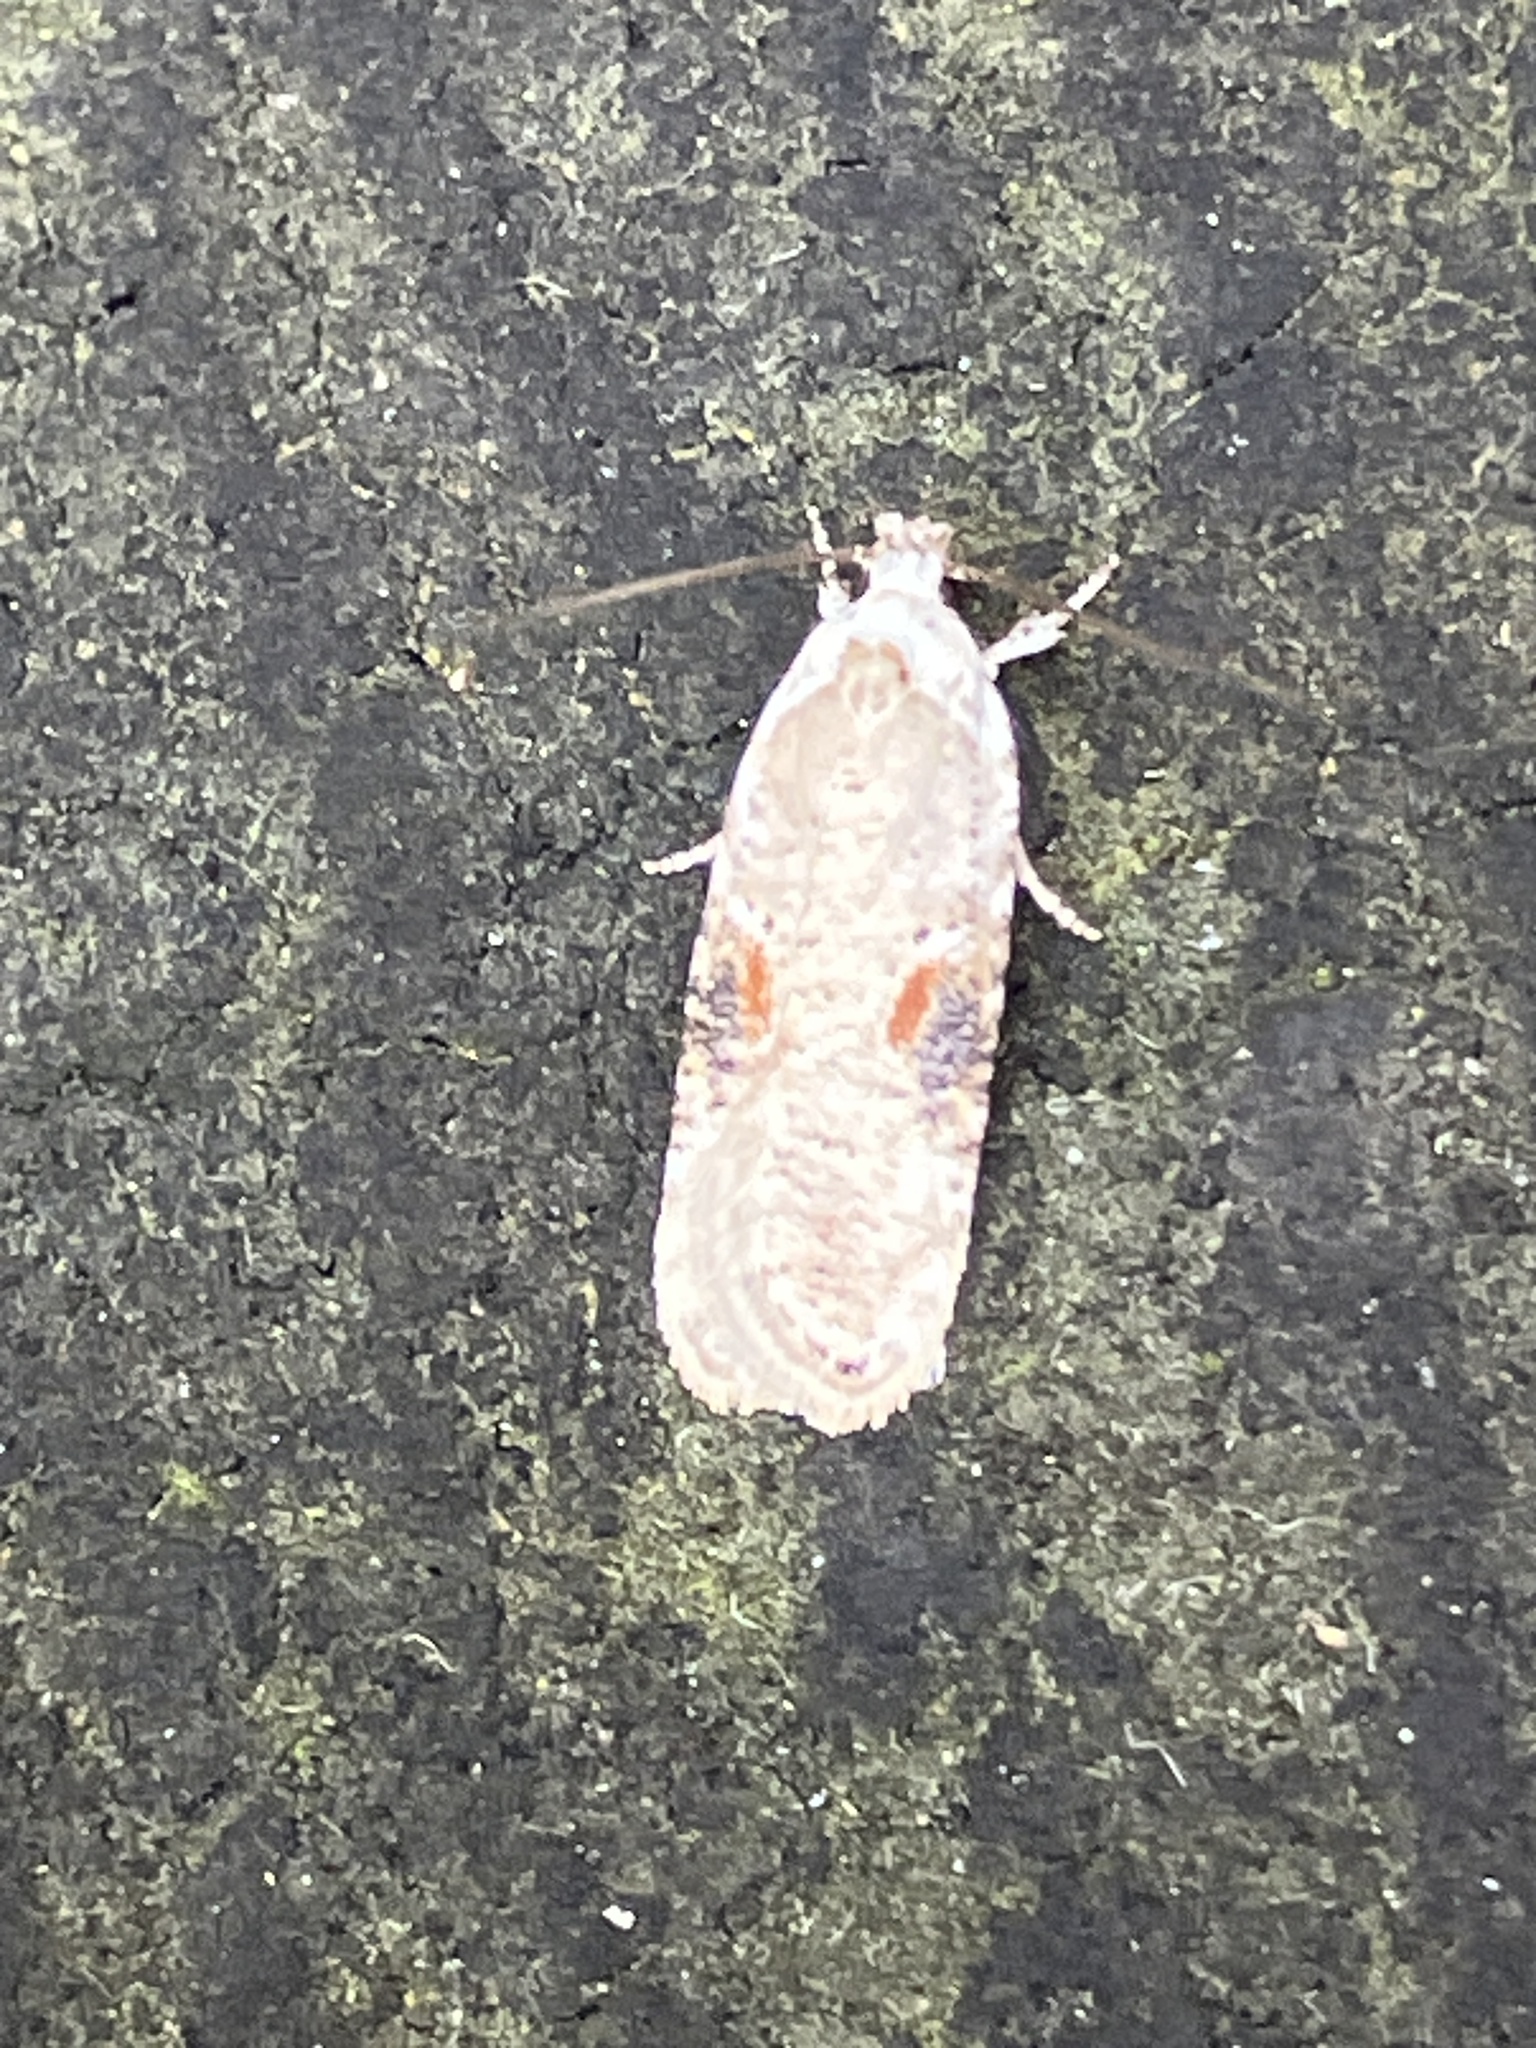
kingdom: Animalia
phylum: Arthropoda
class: Insecta
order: Lepidoptera
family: Depressariidae
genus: Agonopterix
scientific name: Agonopterix alstroemeriana
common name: Moth
